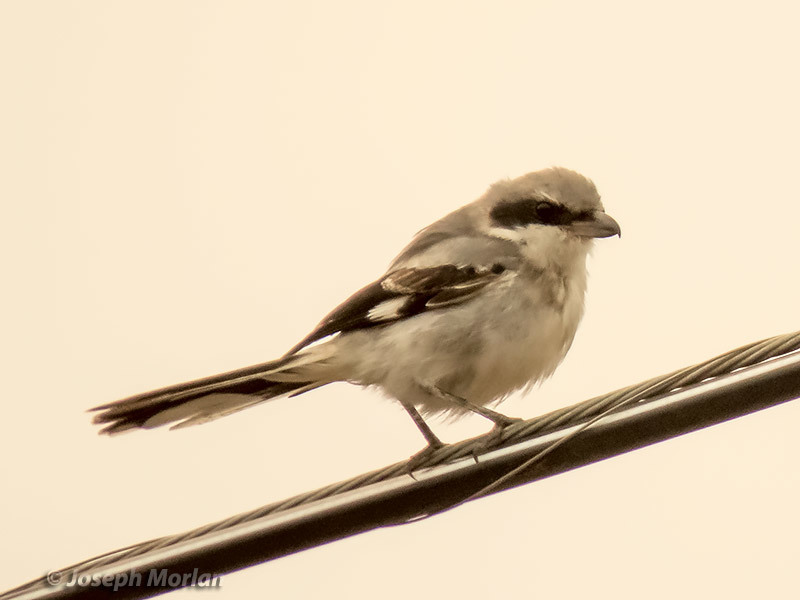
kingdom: Animalia
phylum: Chordata
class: Aves
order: Passeriformes
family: Laniidae
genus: Lanius
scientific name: Lanius ludovicianus
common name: Loggerhead shrike
